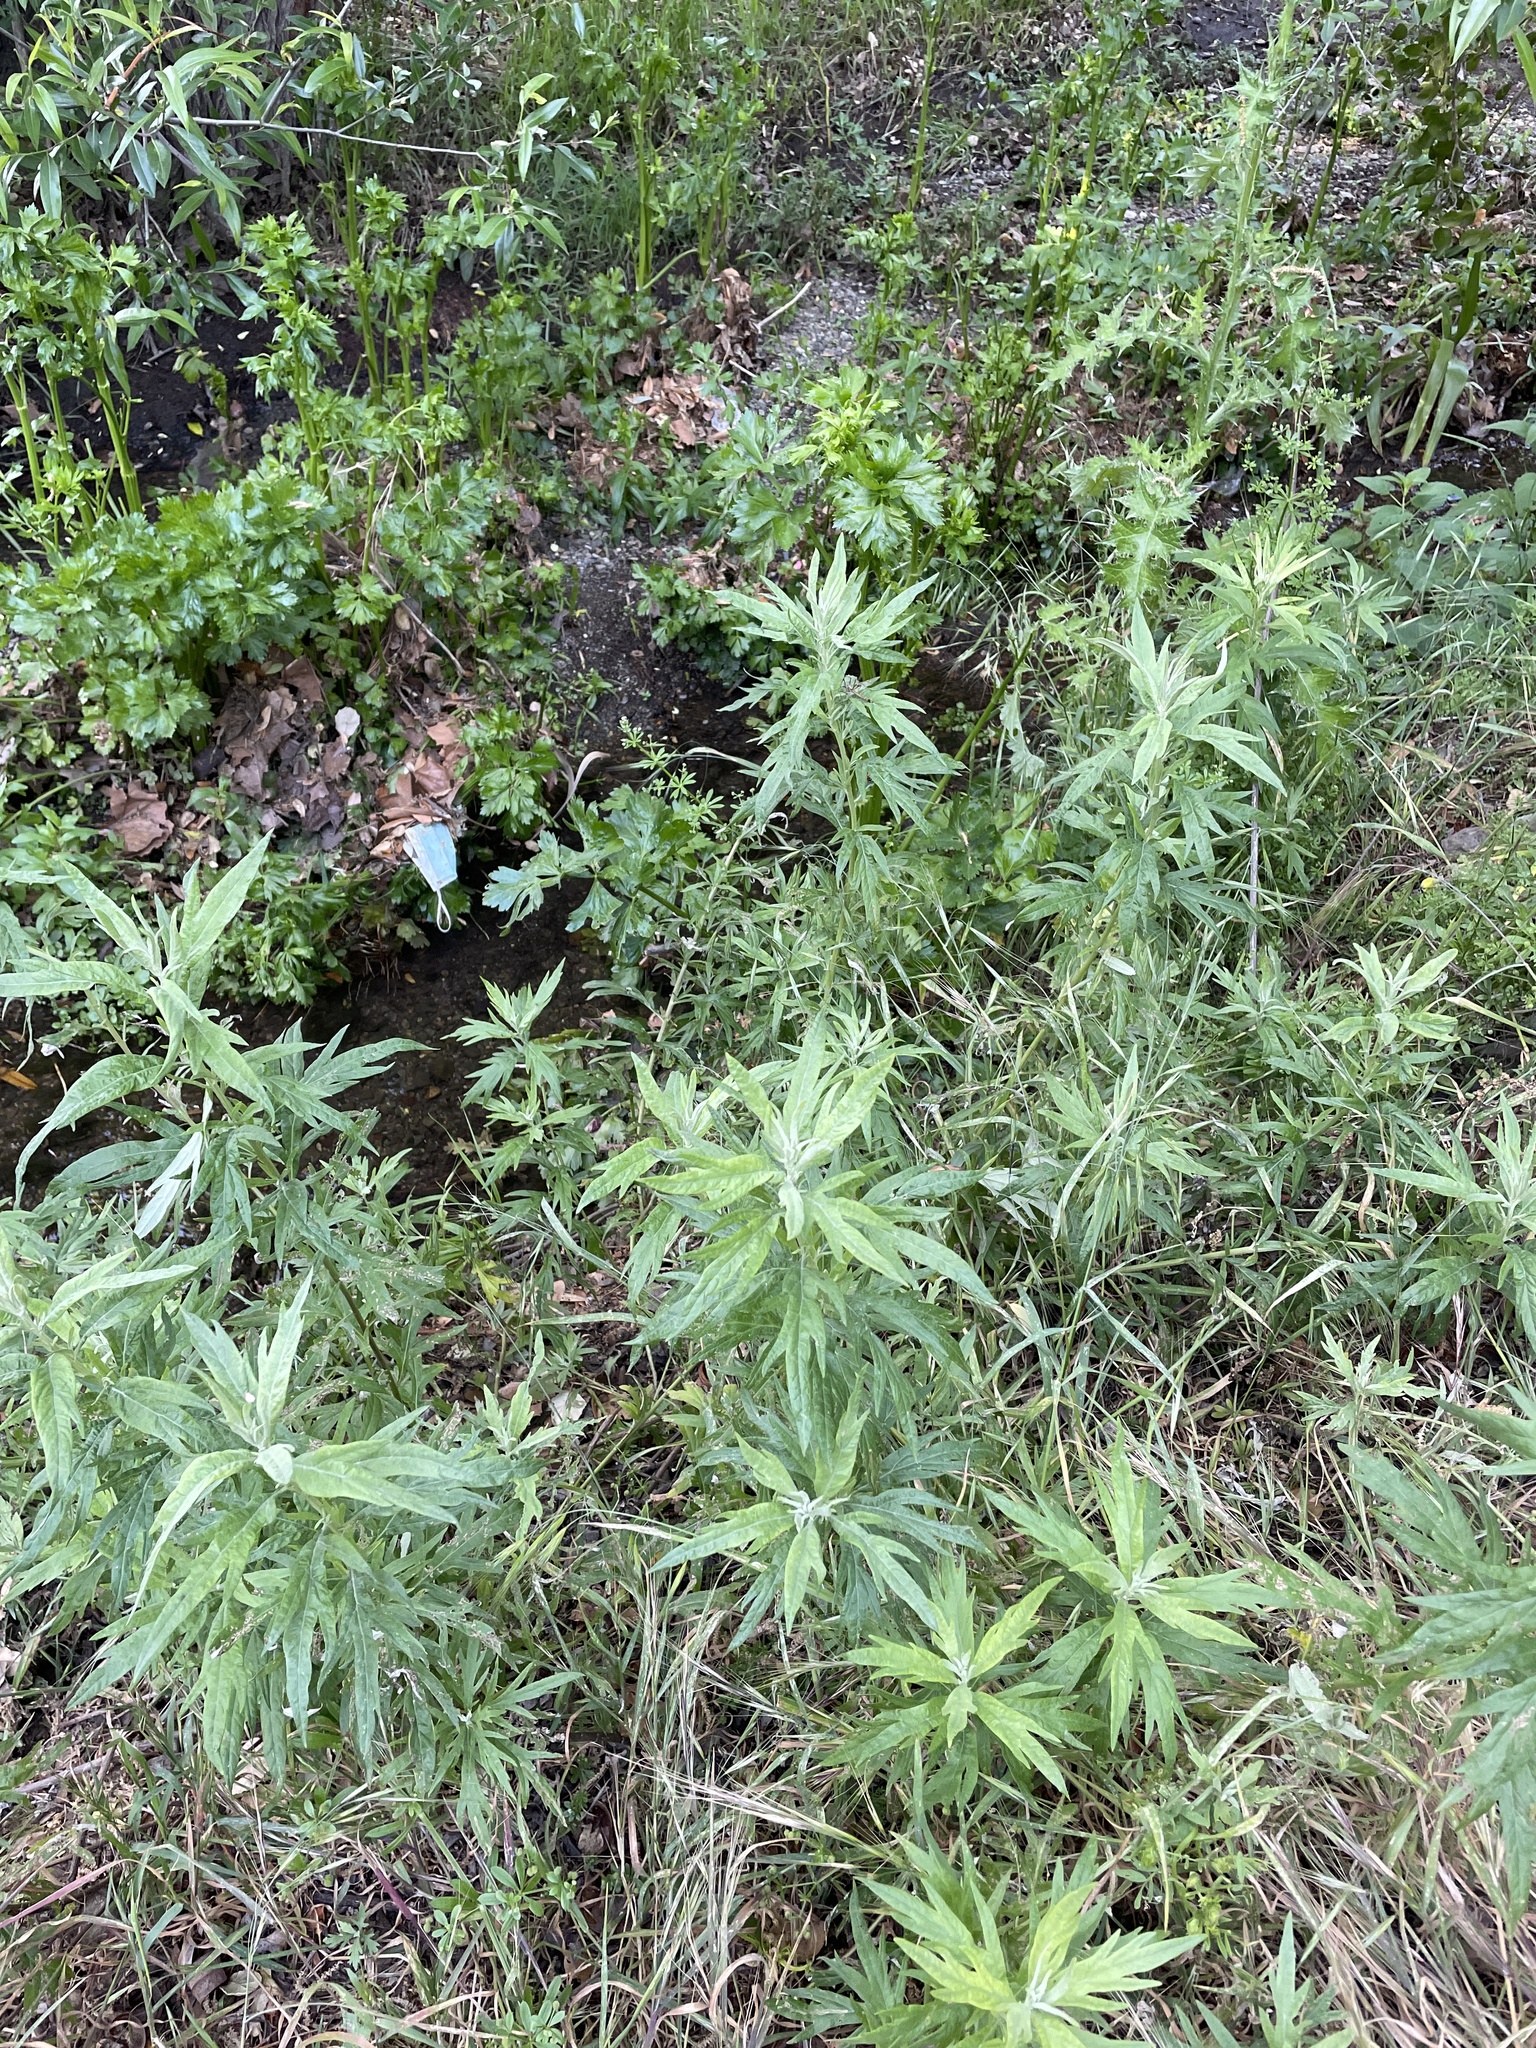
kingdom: Plantae
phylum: Tracheophyta
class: Magnoliopsida
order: Asterales
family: Asteraceae
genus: Artemisia
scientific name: Artemisia douglasiana
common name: Northwest mugwort
